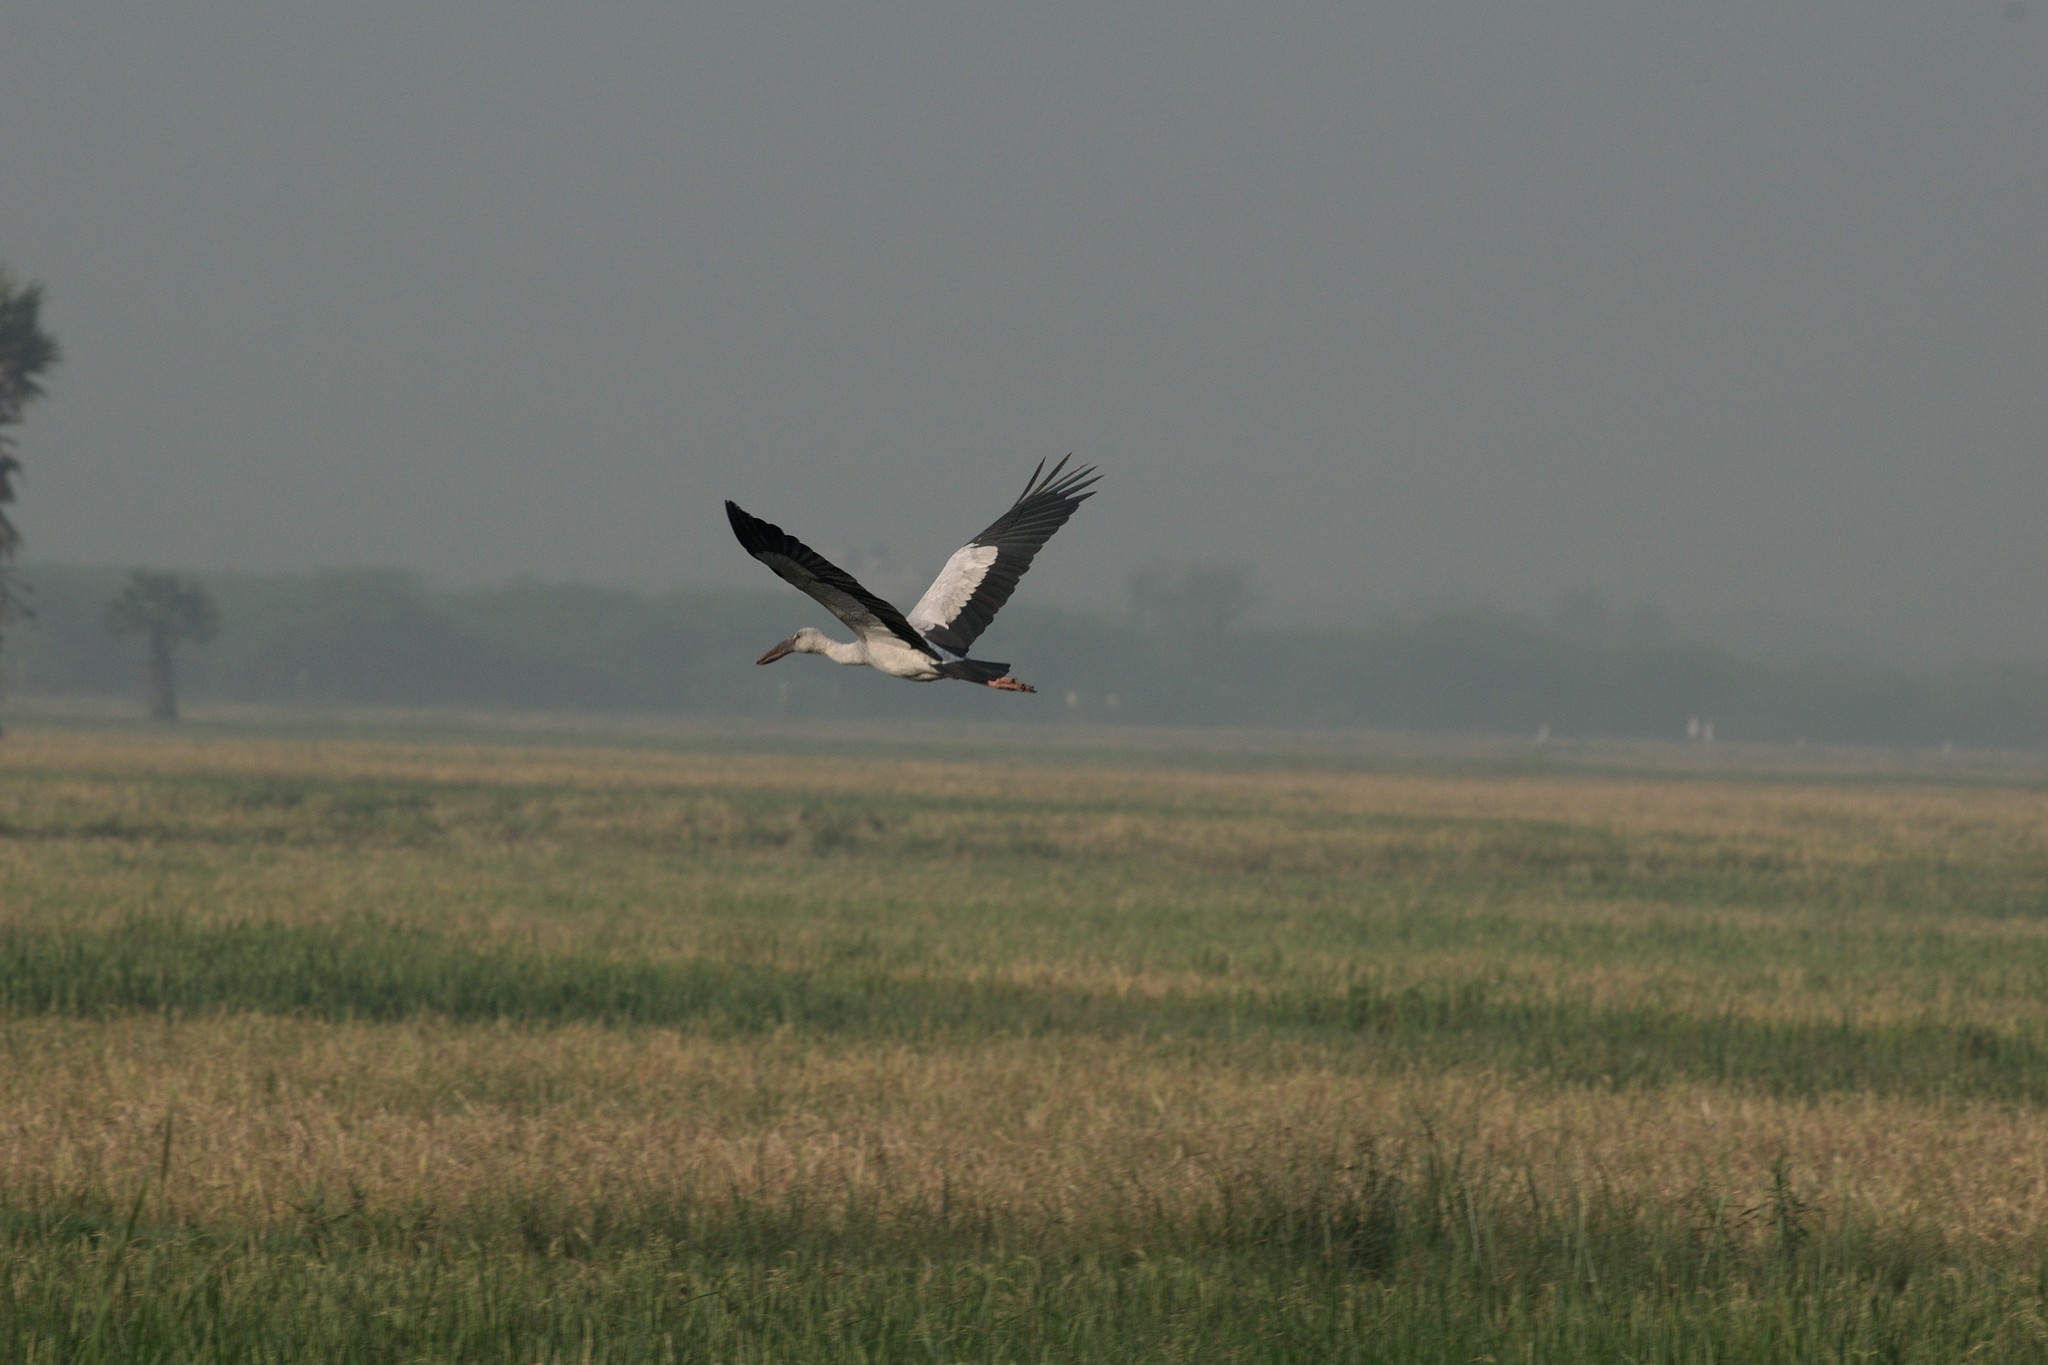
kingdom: Animalia
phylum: Chordata
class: Aves
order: Ciconiiformes
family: Ciconiidae
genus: Anastomus
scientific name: Anastomus oscitans
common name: Asian openbill
